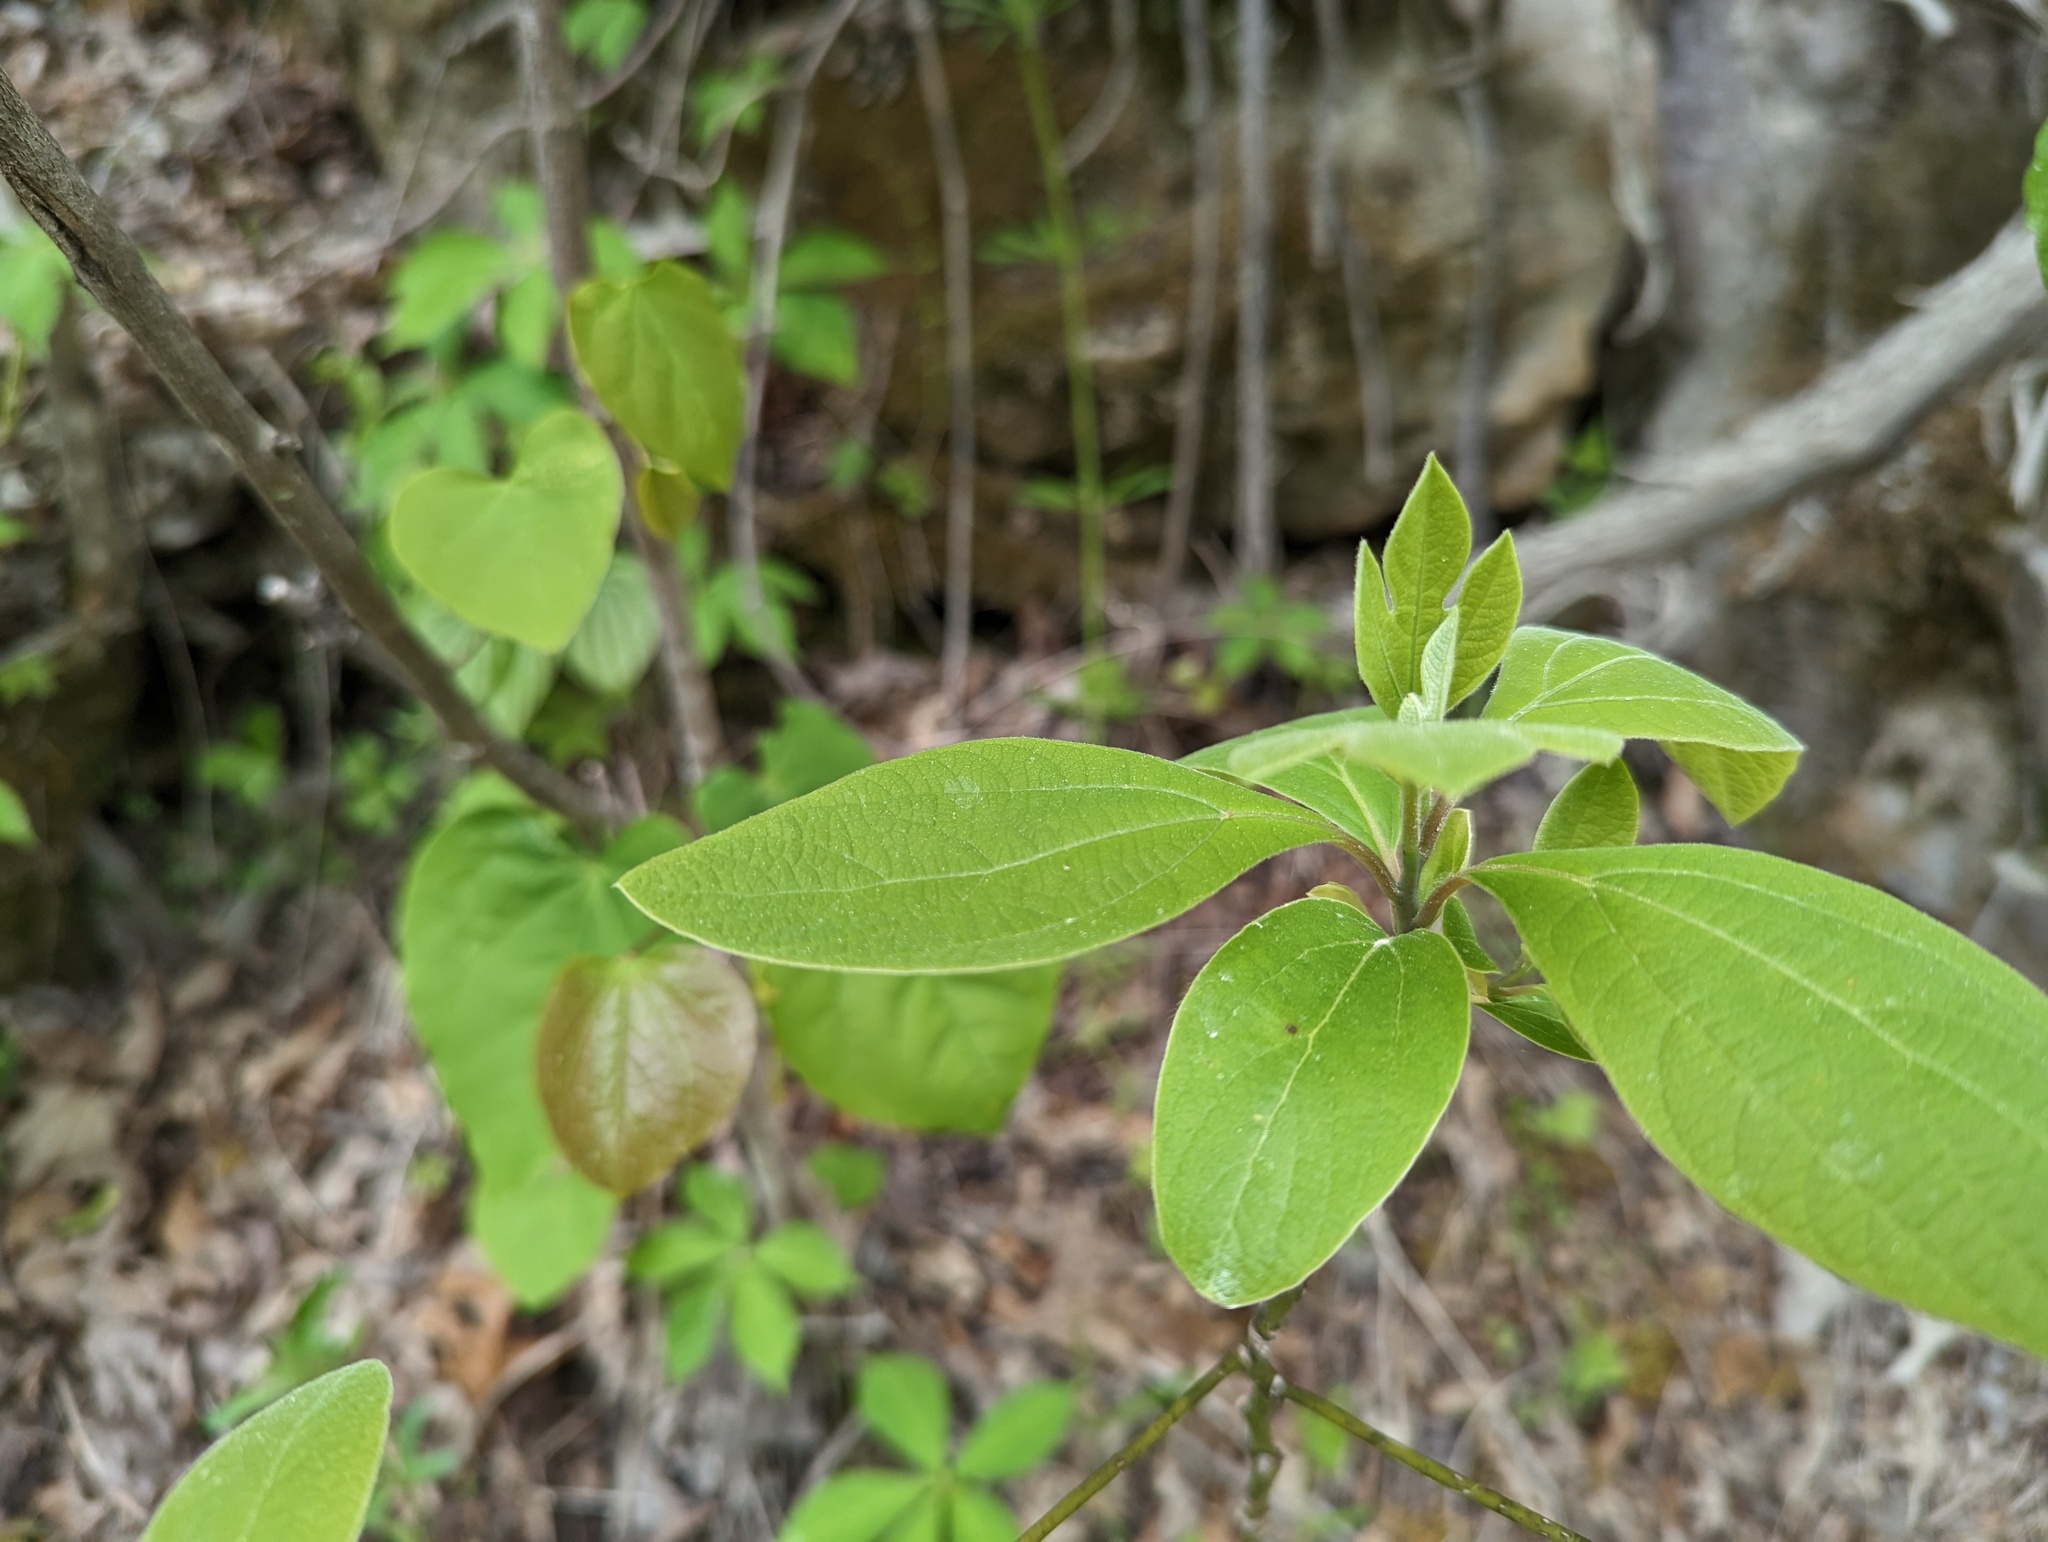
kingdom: Plantae
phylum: Tracheophyta
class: Magnoliopsida
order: Laurales
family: Lauraceae
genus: Sassafras
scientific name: Sassafras albidum
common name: Sassafras
